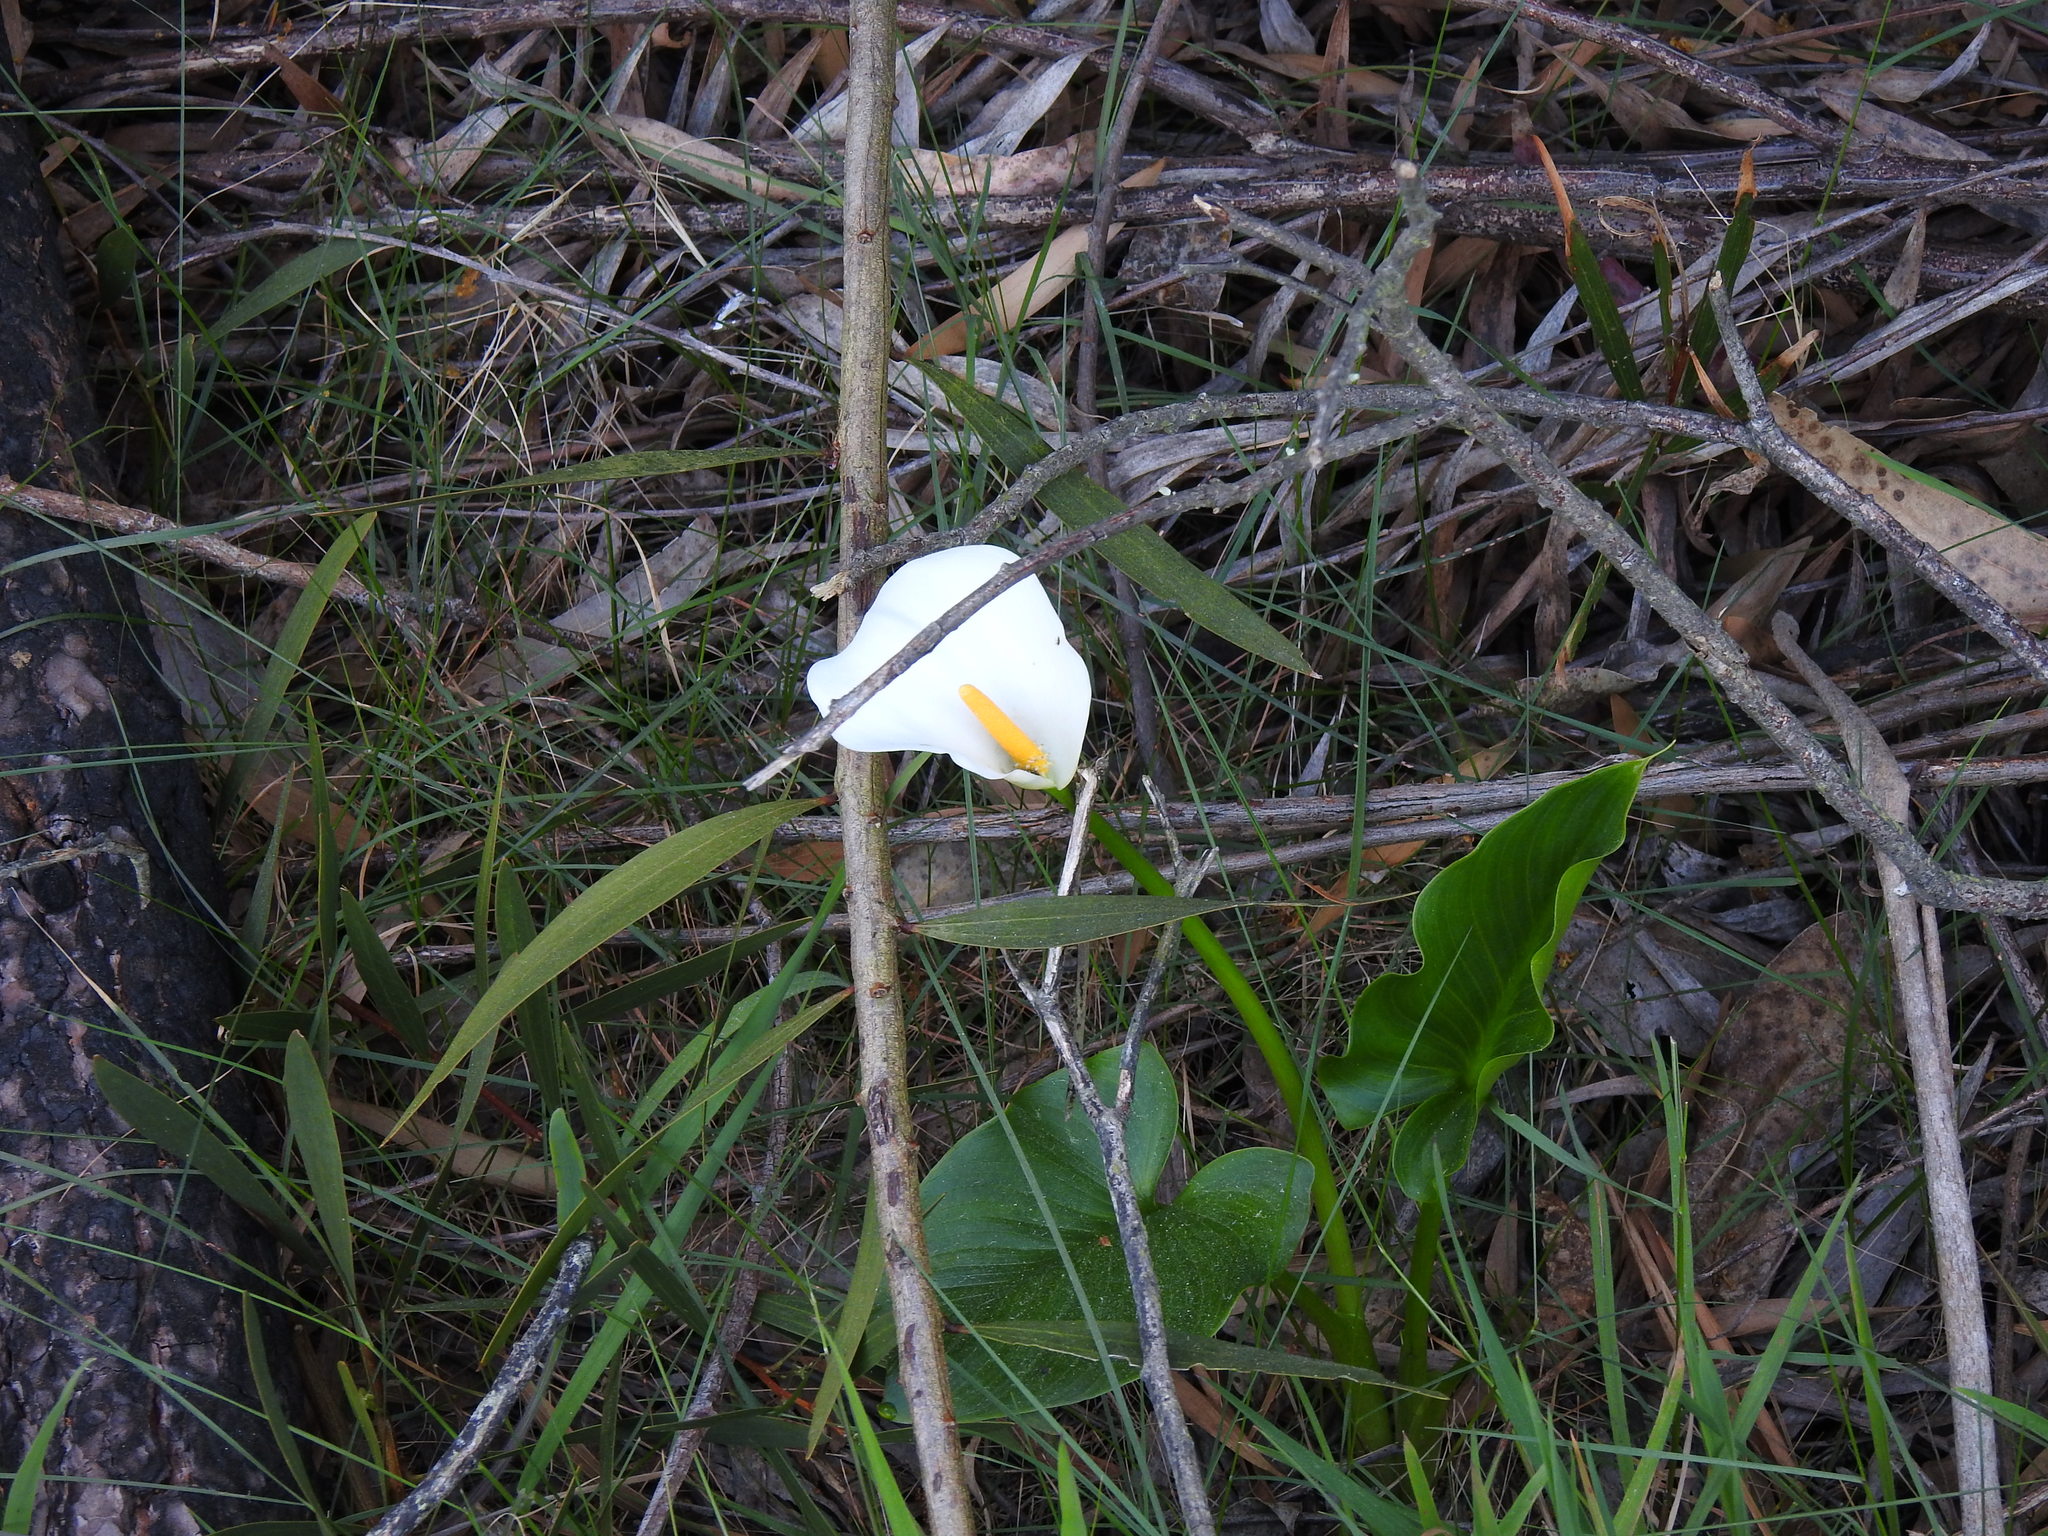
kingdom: Plantae
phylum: Tracheophyta
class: Liliopsida
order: Alismatales
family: Araceae
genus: Zantedeschia
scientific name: Zantedeschia aethiopica
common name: Altar-lily
